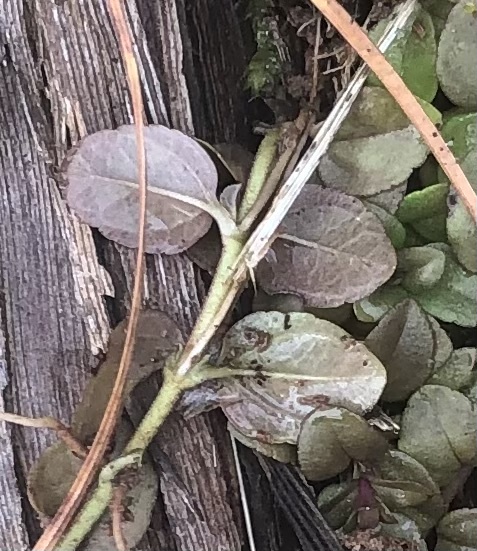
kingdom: Plantae
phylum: Tracheophyta
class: Magnoliopsida
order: Lamiales
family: Plantaginaceae
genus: Veronica
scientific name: Veronica serpyllifolia
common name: Thyme-leaved speedwell
